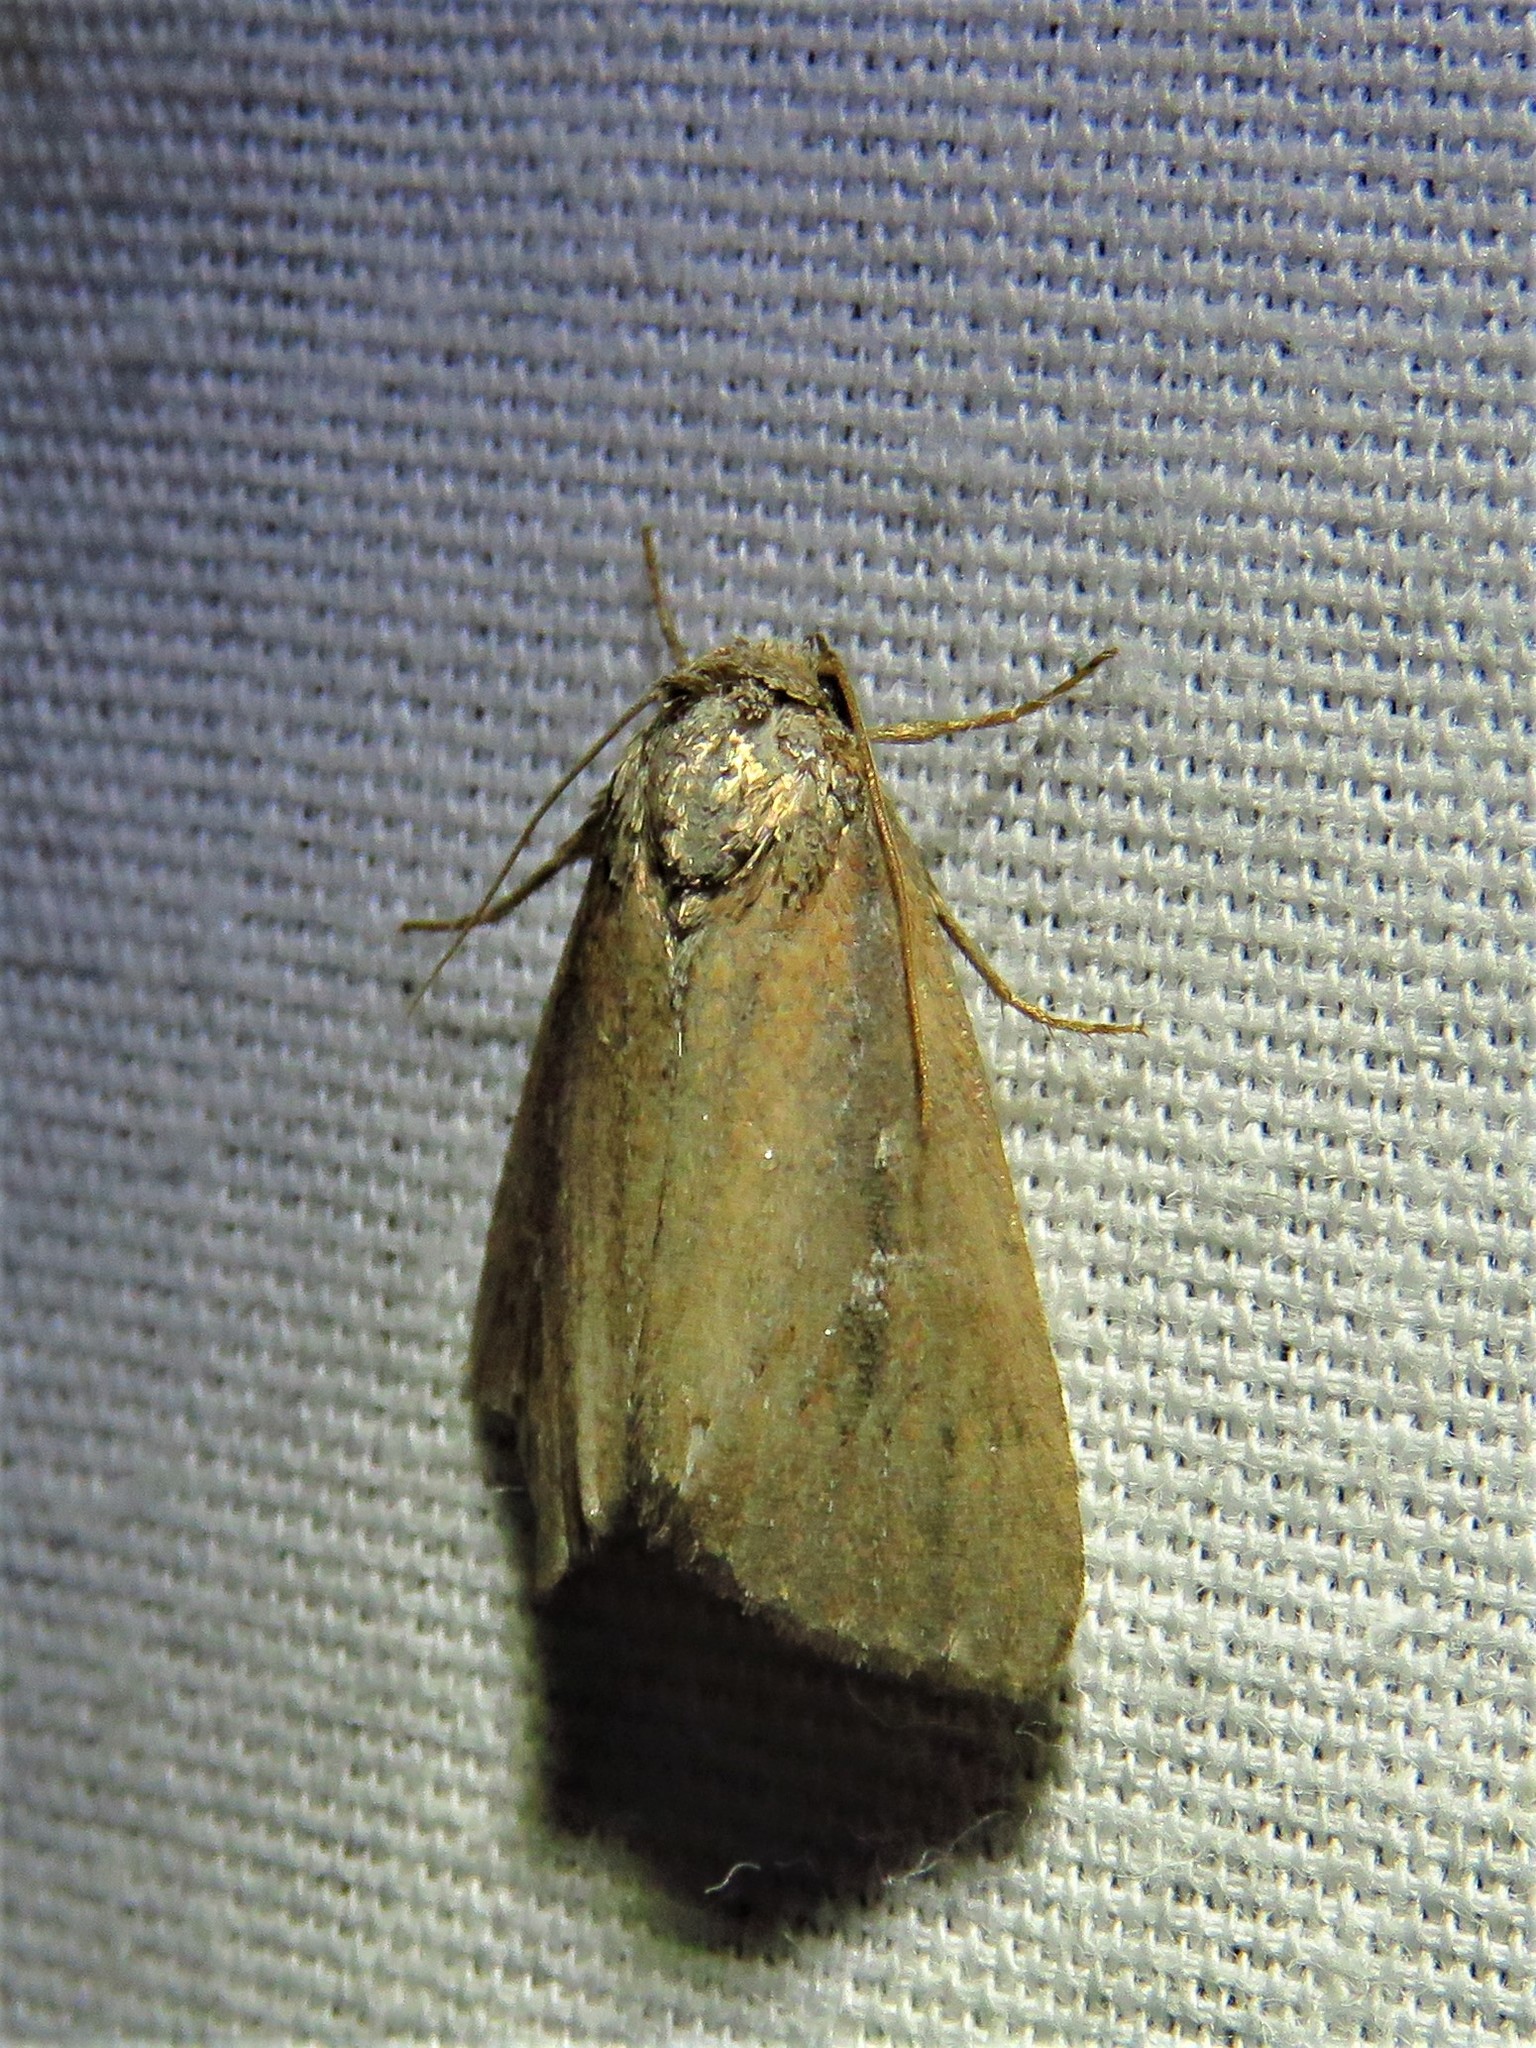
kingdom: Animalia
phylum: Arthropoda
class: Insecta
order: Lepidoptera
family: Noctuidae
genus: Condica
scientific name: Condica videns
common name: White-dotted groundling
